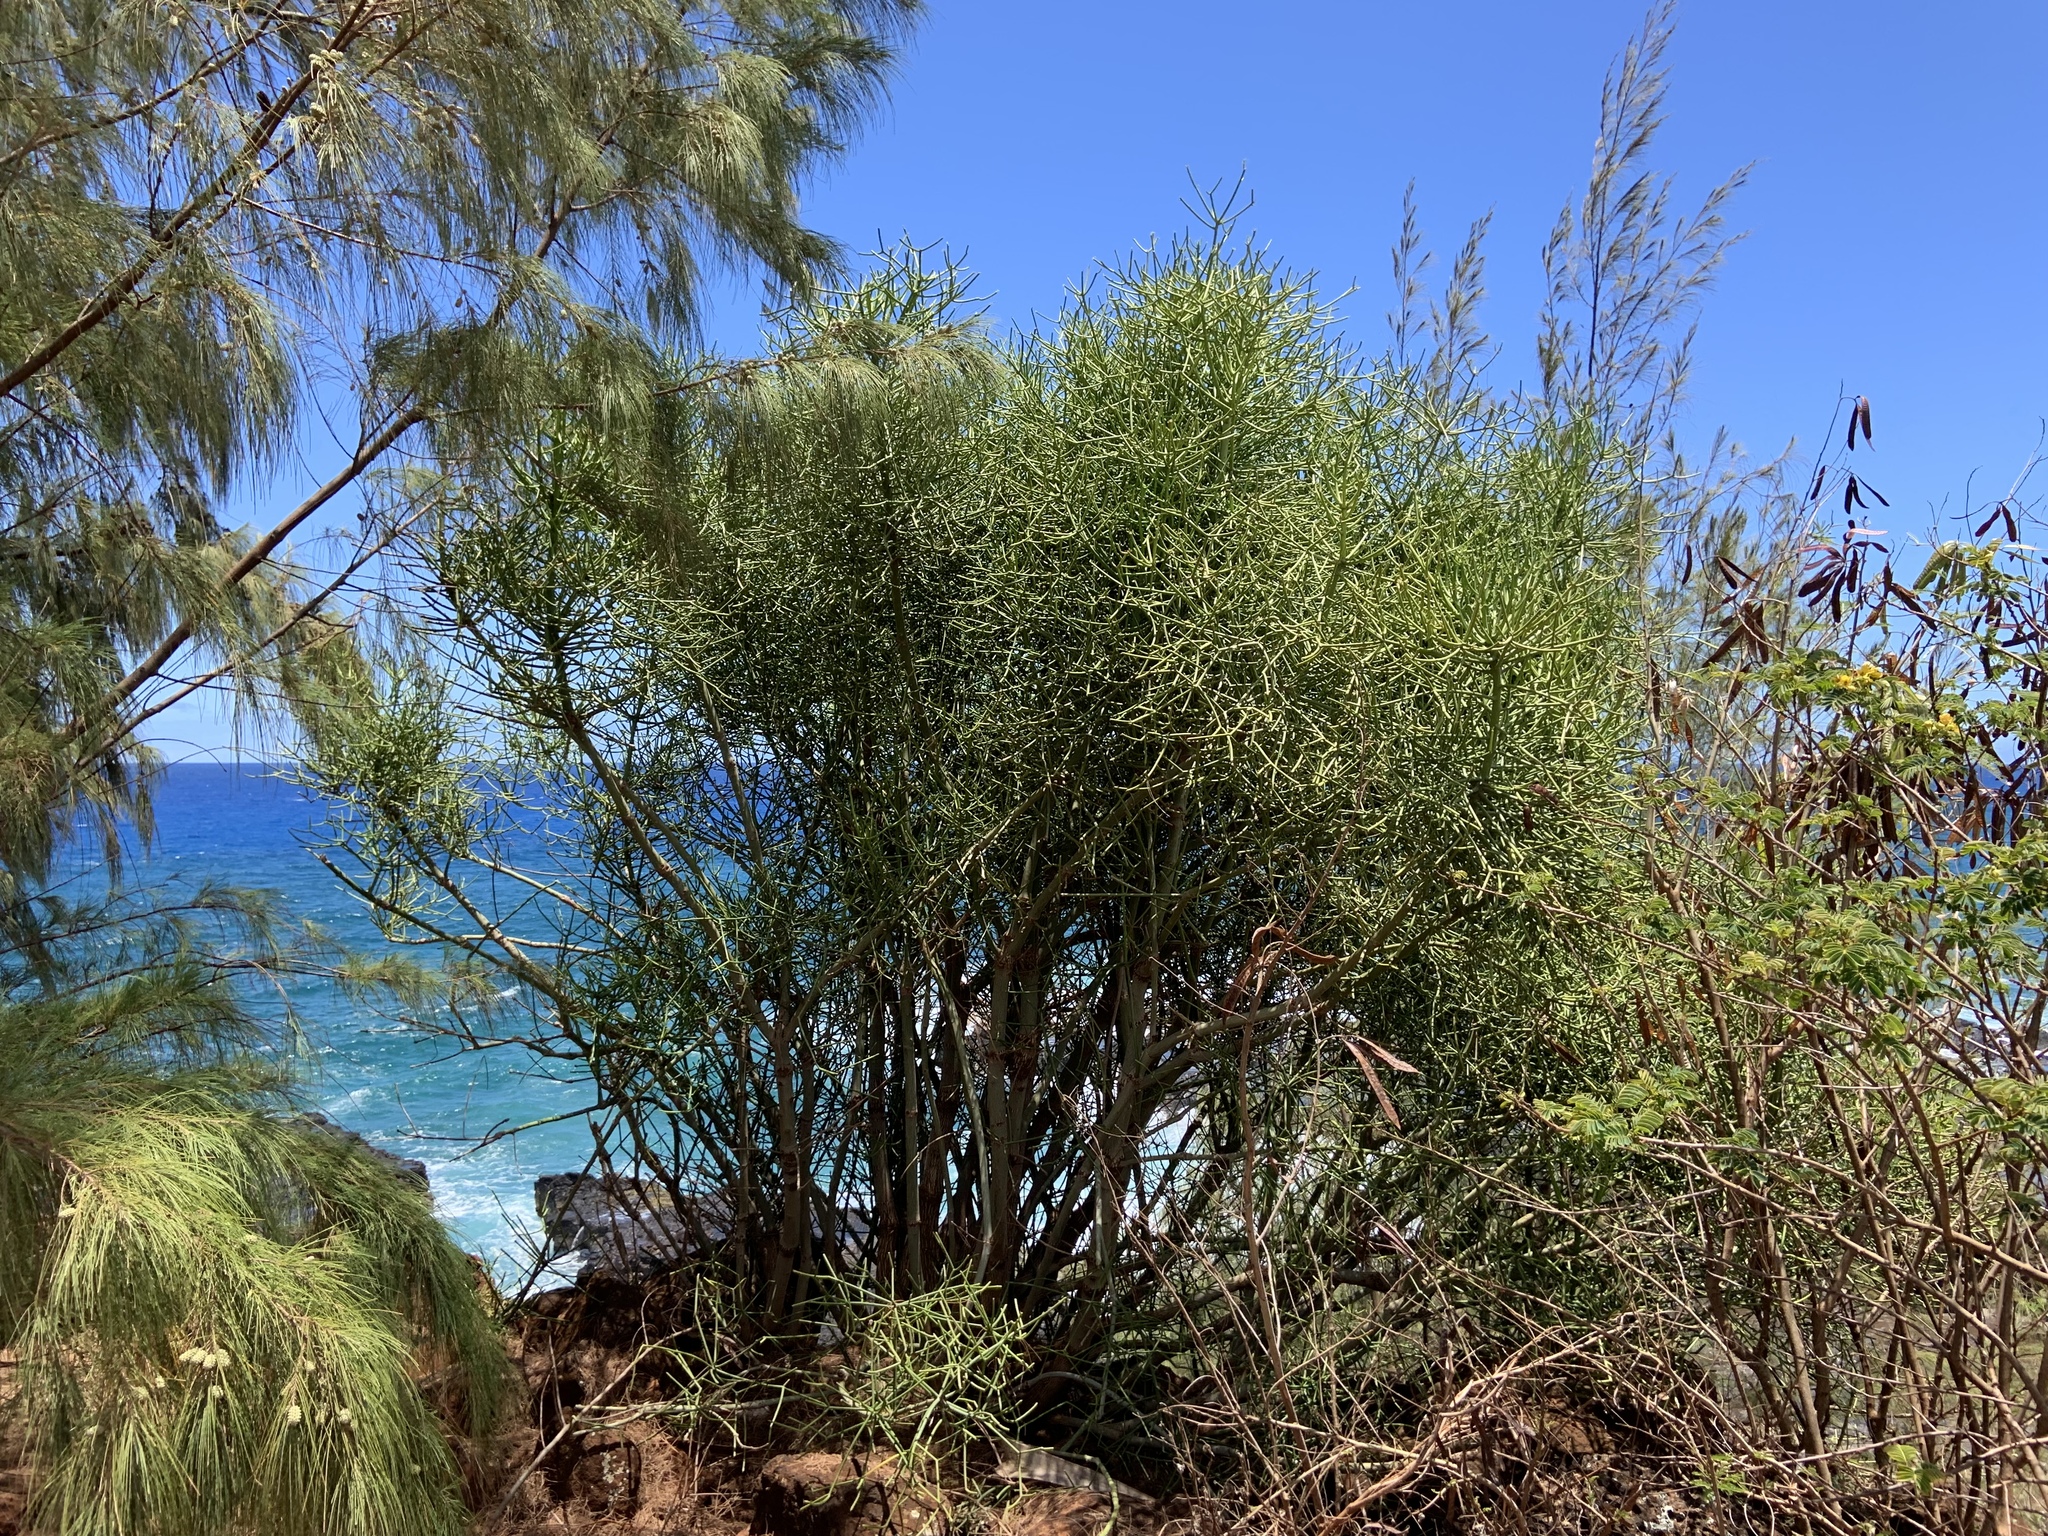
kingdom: Plantae
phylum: Tracheophyta
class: Magnoliopsida
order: Malpighiales
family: Euphorbiaceae
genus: Euphorbia
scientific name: Euphorbia tirucalli
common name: Indiantree spurge
